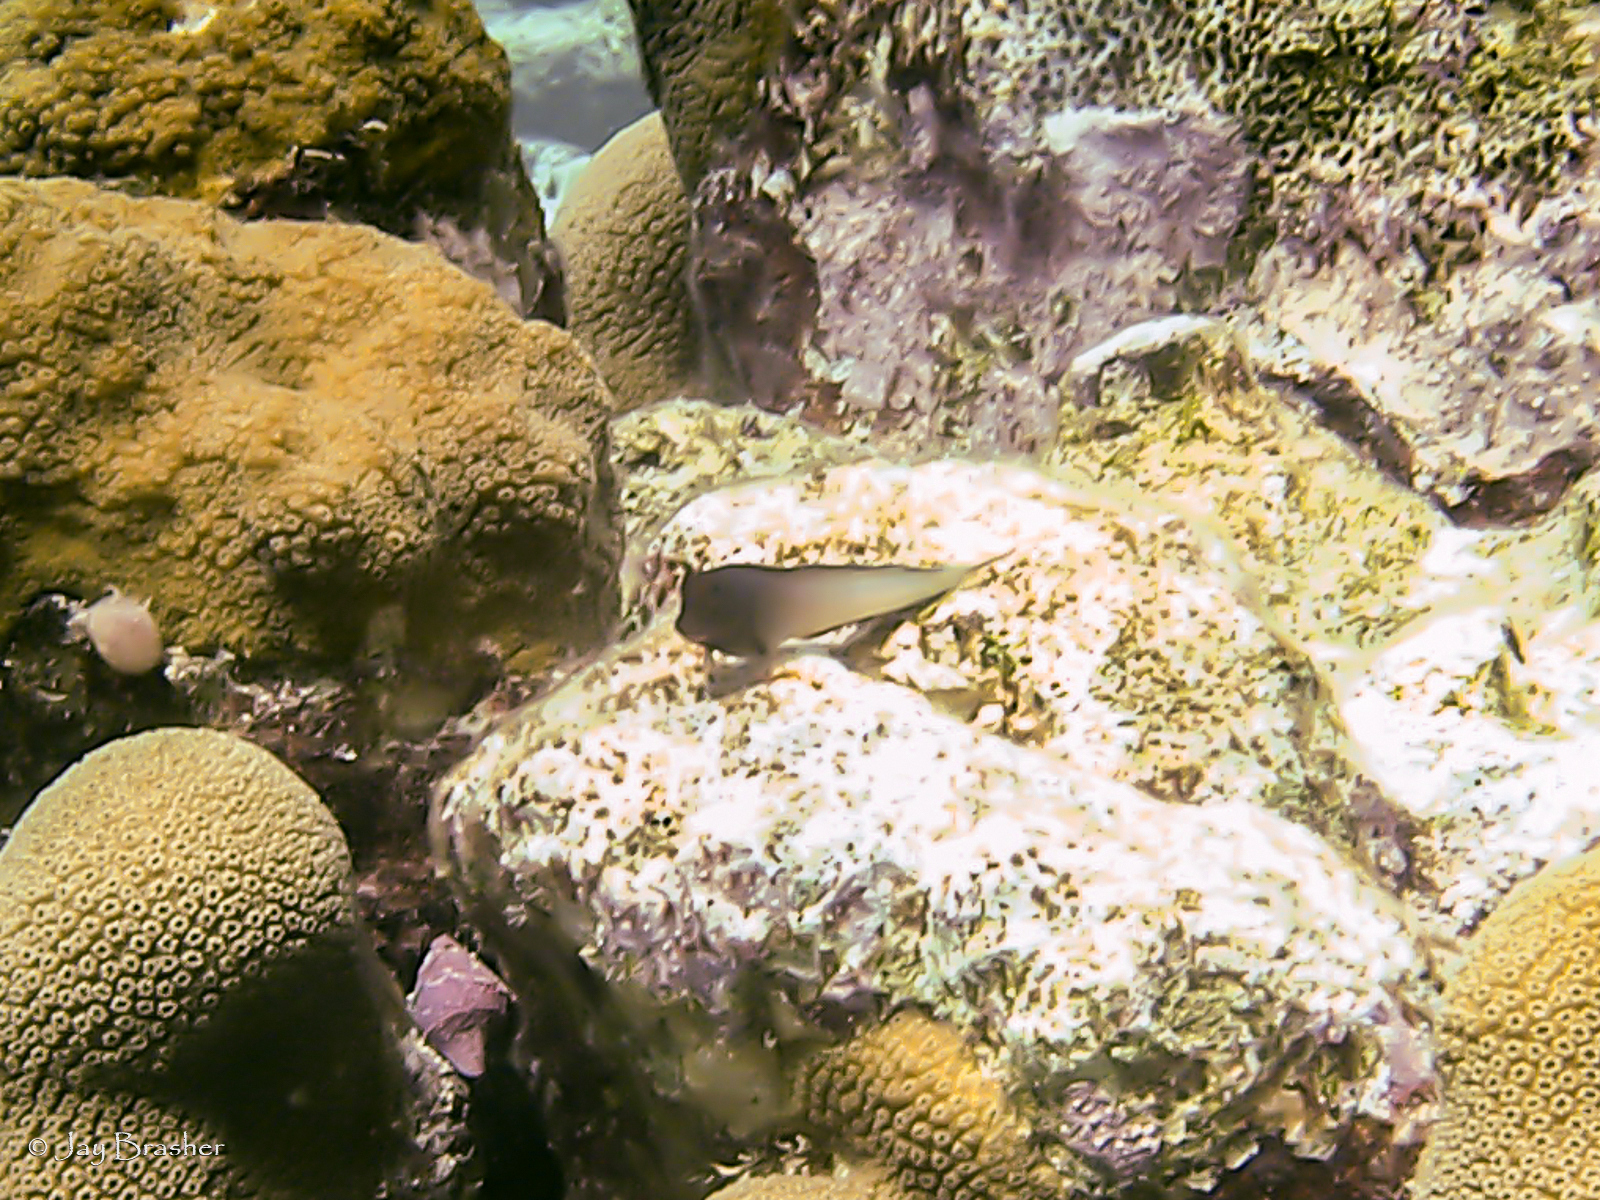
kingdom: Animalia
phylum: Chordata
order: Perciformes
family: Blenniidae
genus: Ophioblennius
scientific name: Ophioblennius macclurei
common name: Redlip blenny
